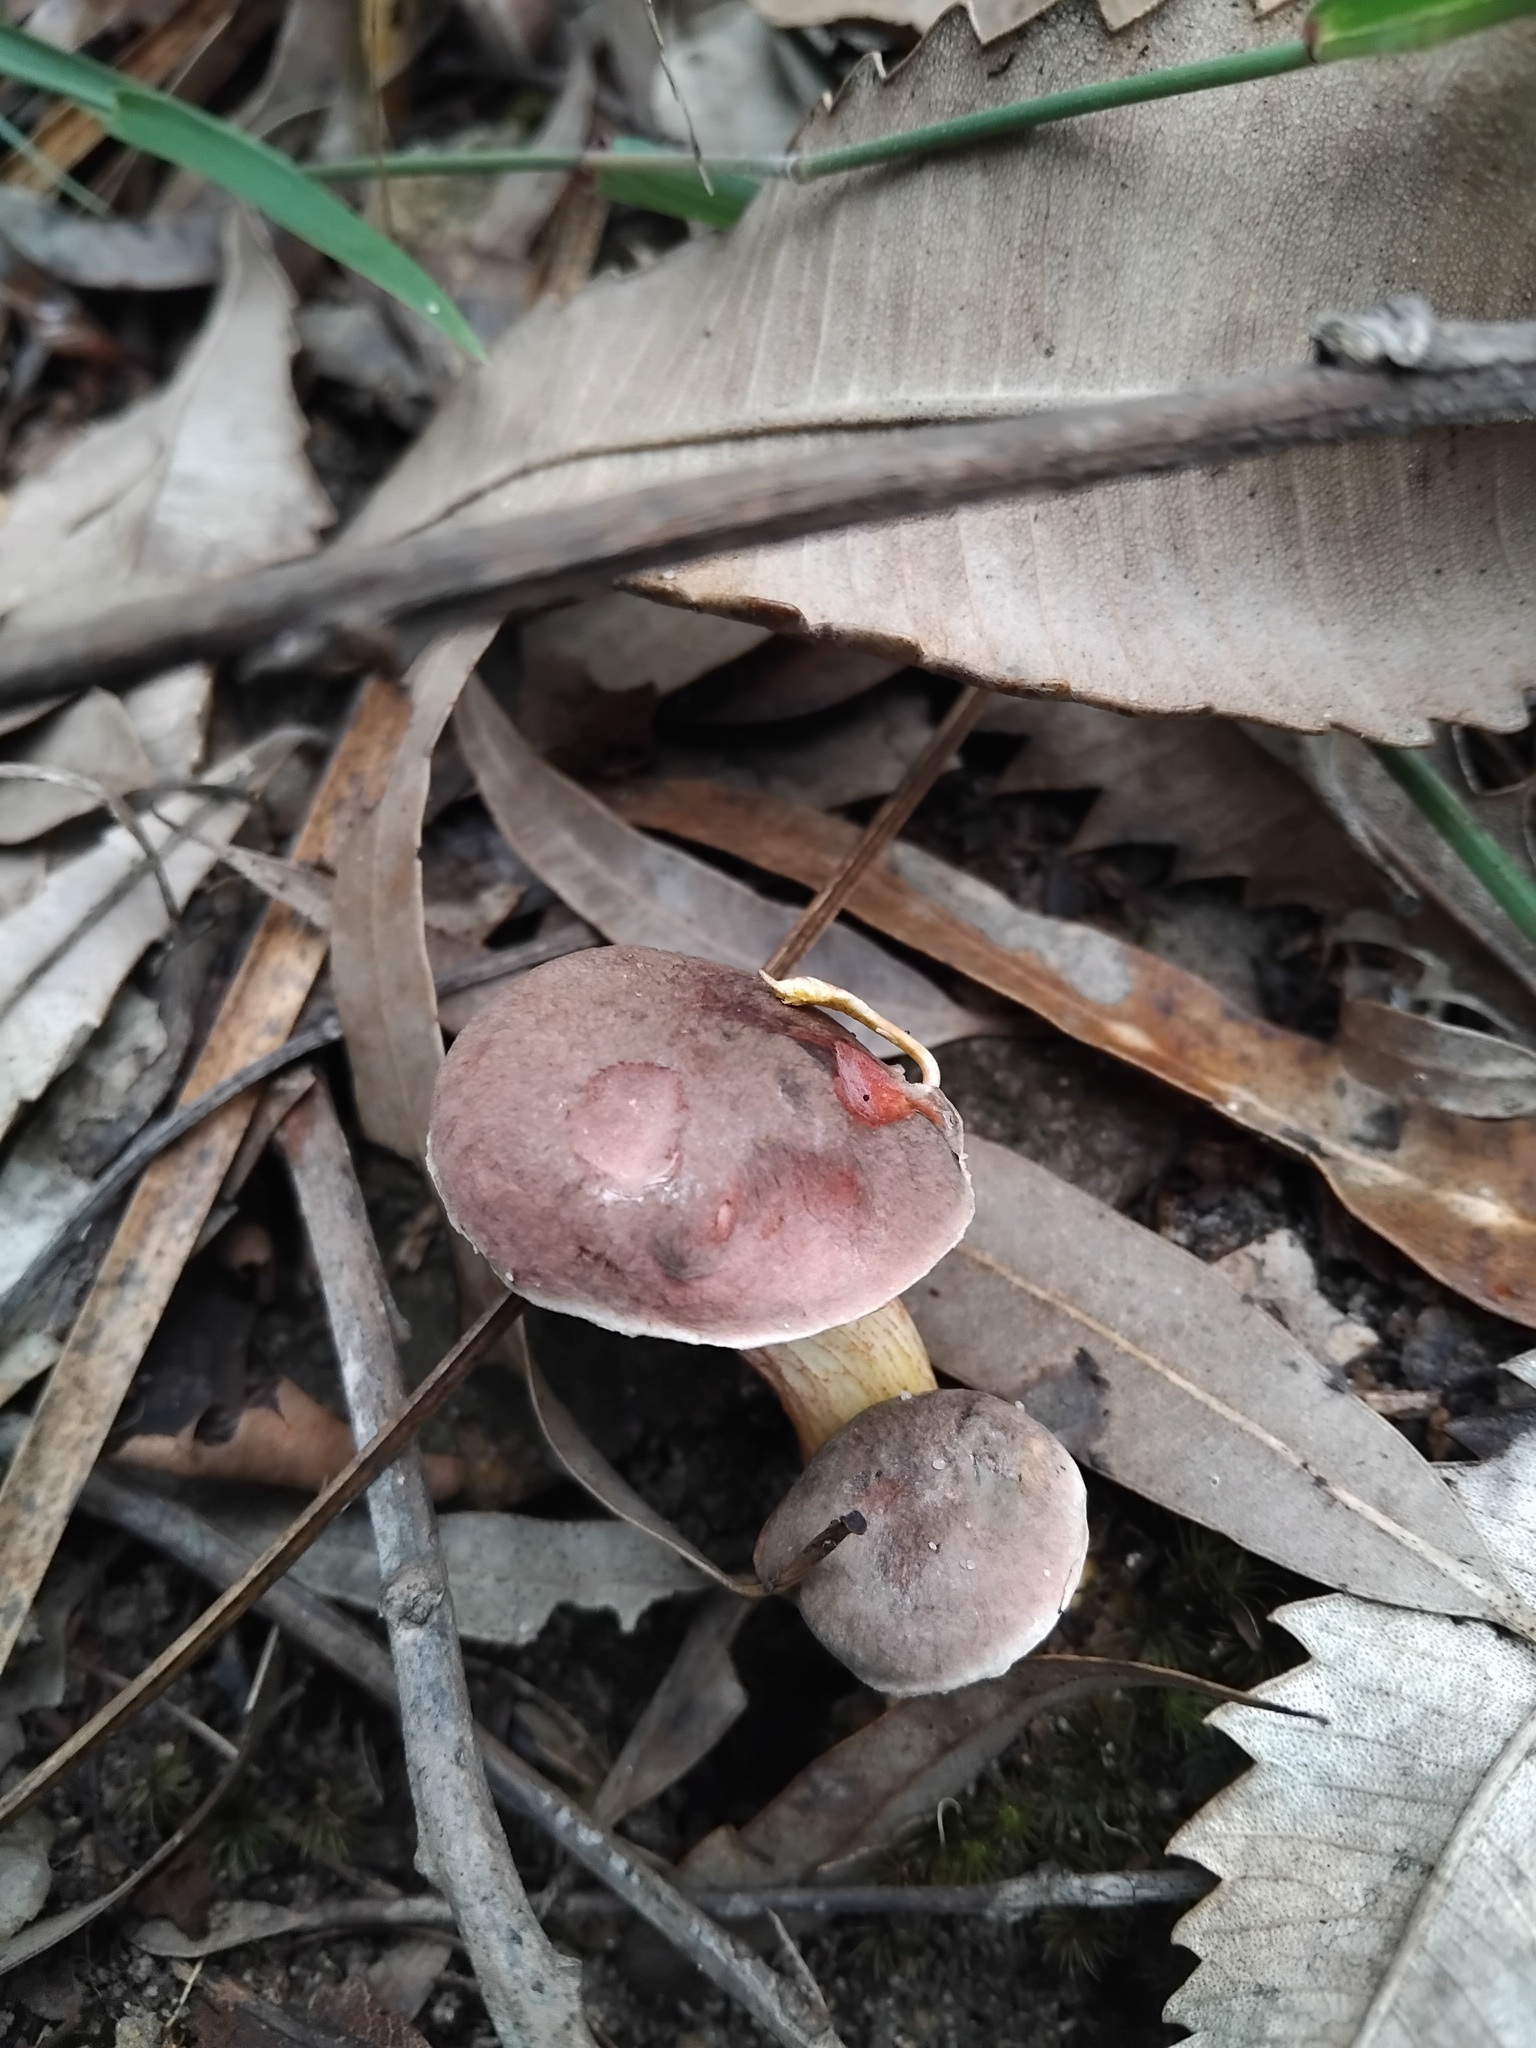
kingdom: Fungi
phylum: Basidiomycota
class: Agaricomycetes
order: Boletales
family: Boletaceae
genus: Royoungia
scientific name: Royoungia palumana
